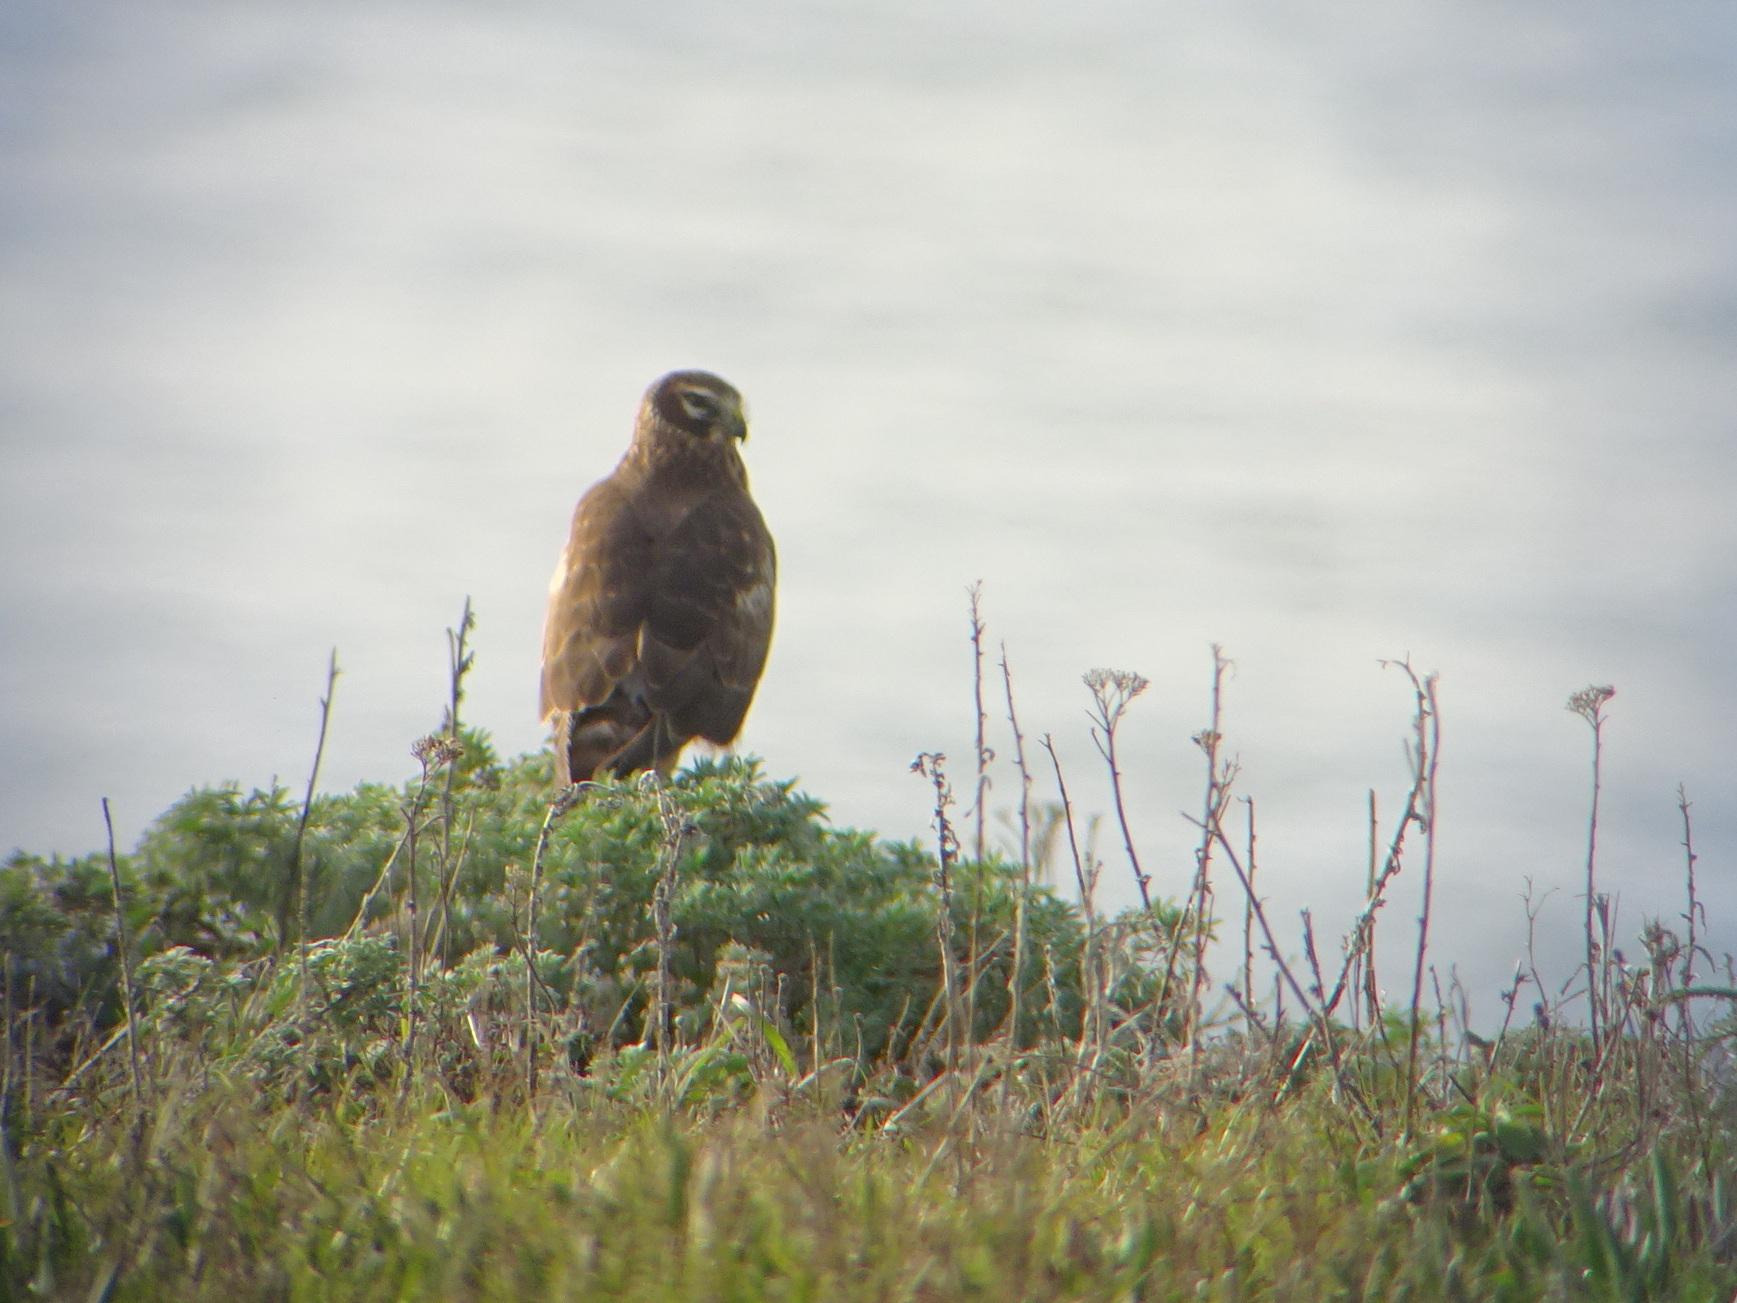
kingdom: Animalia
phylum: Chordata
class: Aves
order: Accipitriformes
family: Accipitridae
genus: Circus
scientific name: Circus cyaneus
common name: Hen harrier
